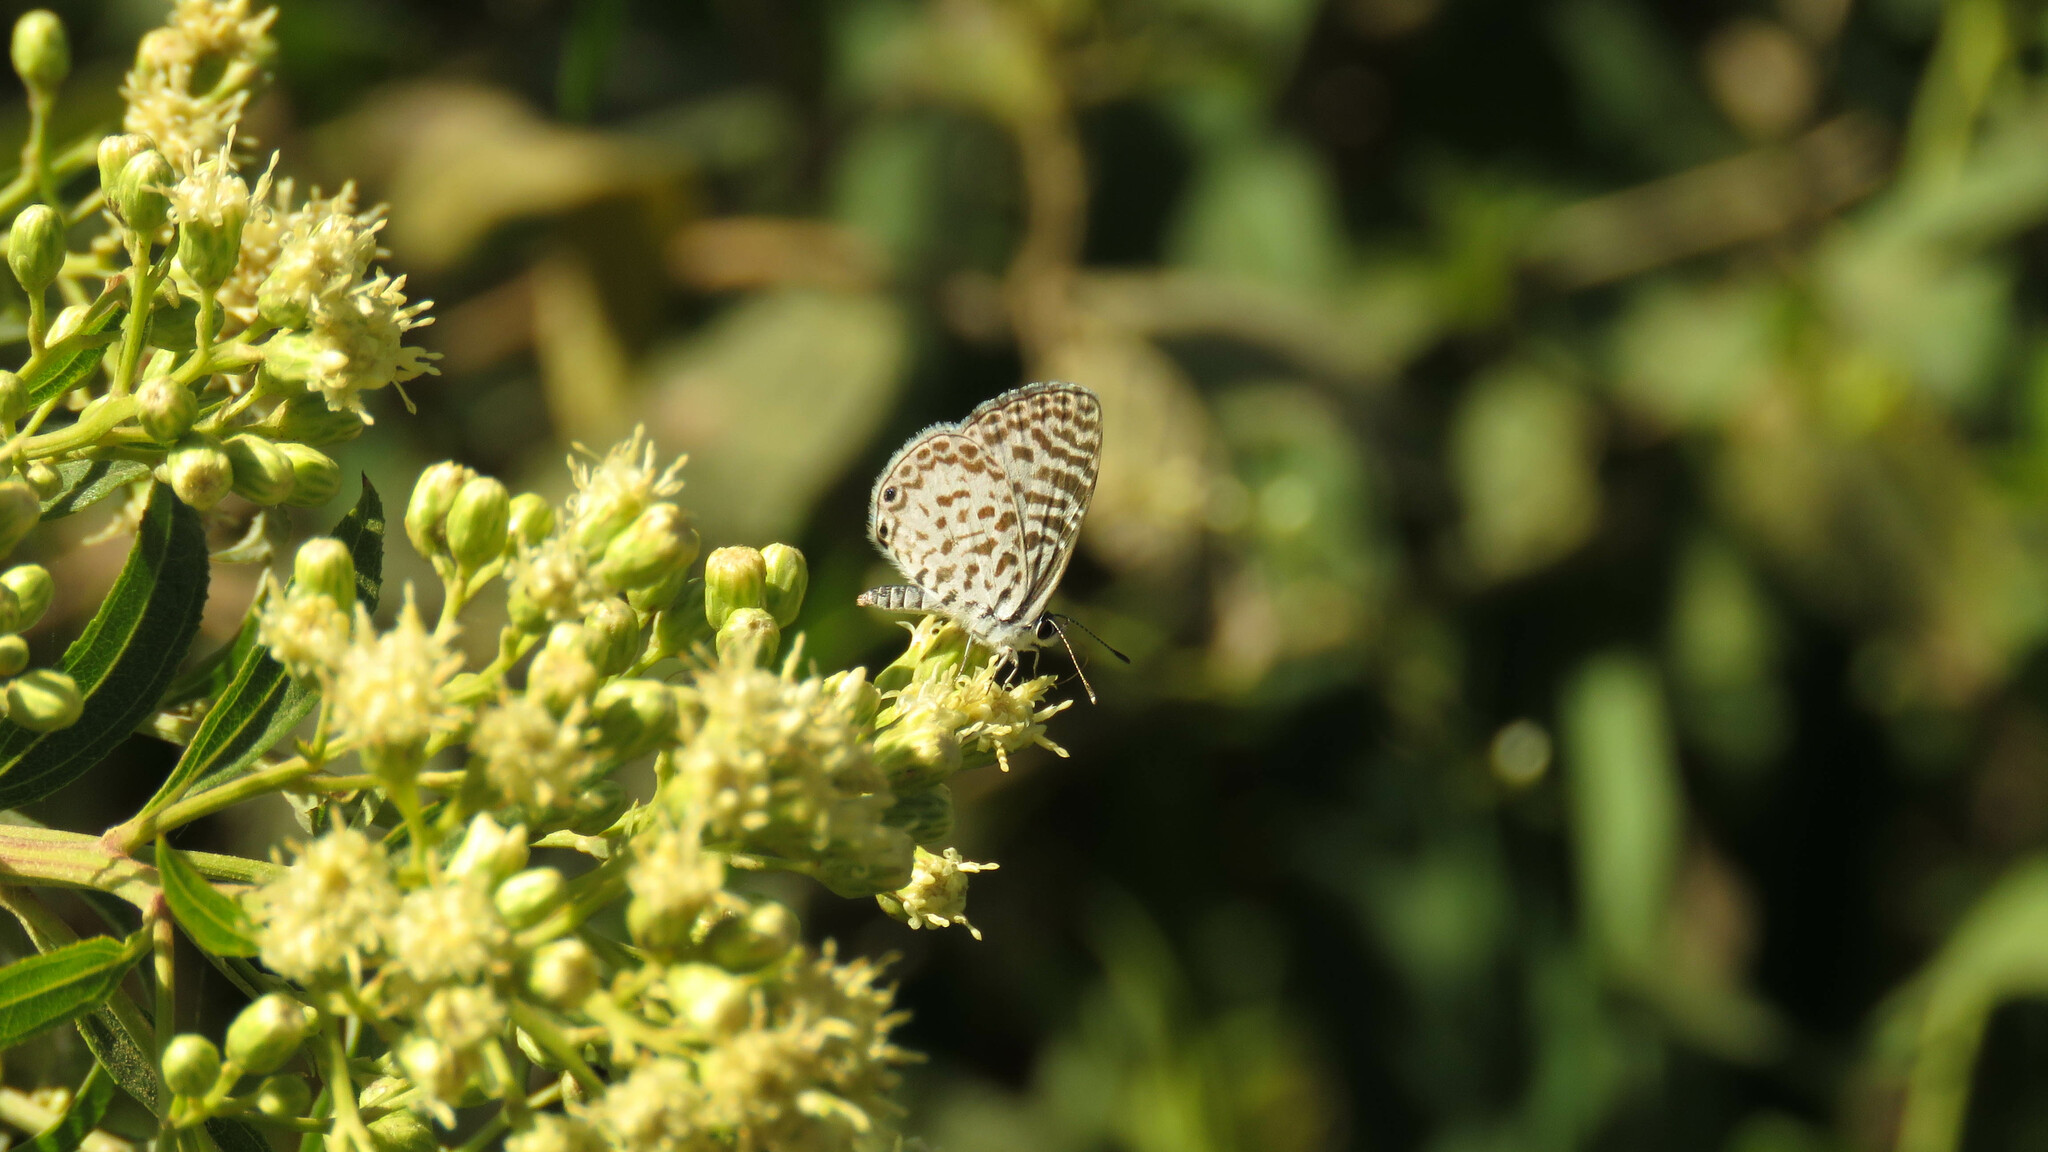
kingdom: Animalia
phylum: Arthropoda
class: Insecta
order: Lepidoptera
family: Lycaenidae
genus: Leptotes
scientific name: Leptotes cassius
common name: Cassius blue
